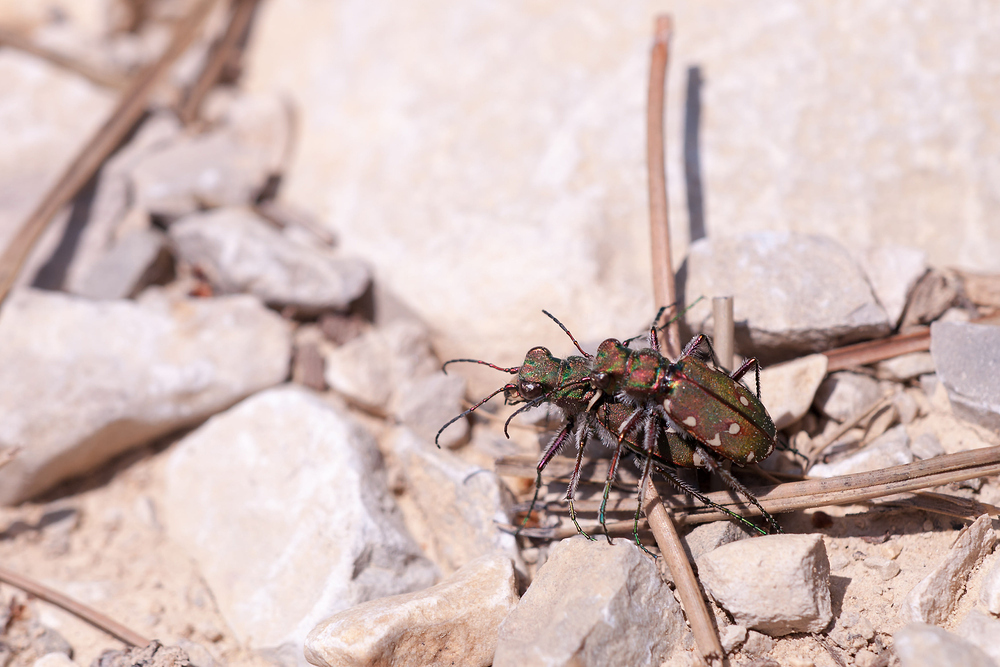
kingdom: Animalia
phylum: Arthropoda
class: Insecta
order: Coleoptera
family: Carabidae
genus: Cicindela
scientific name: Cicindela maroccana
